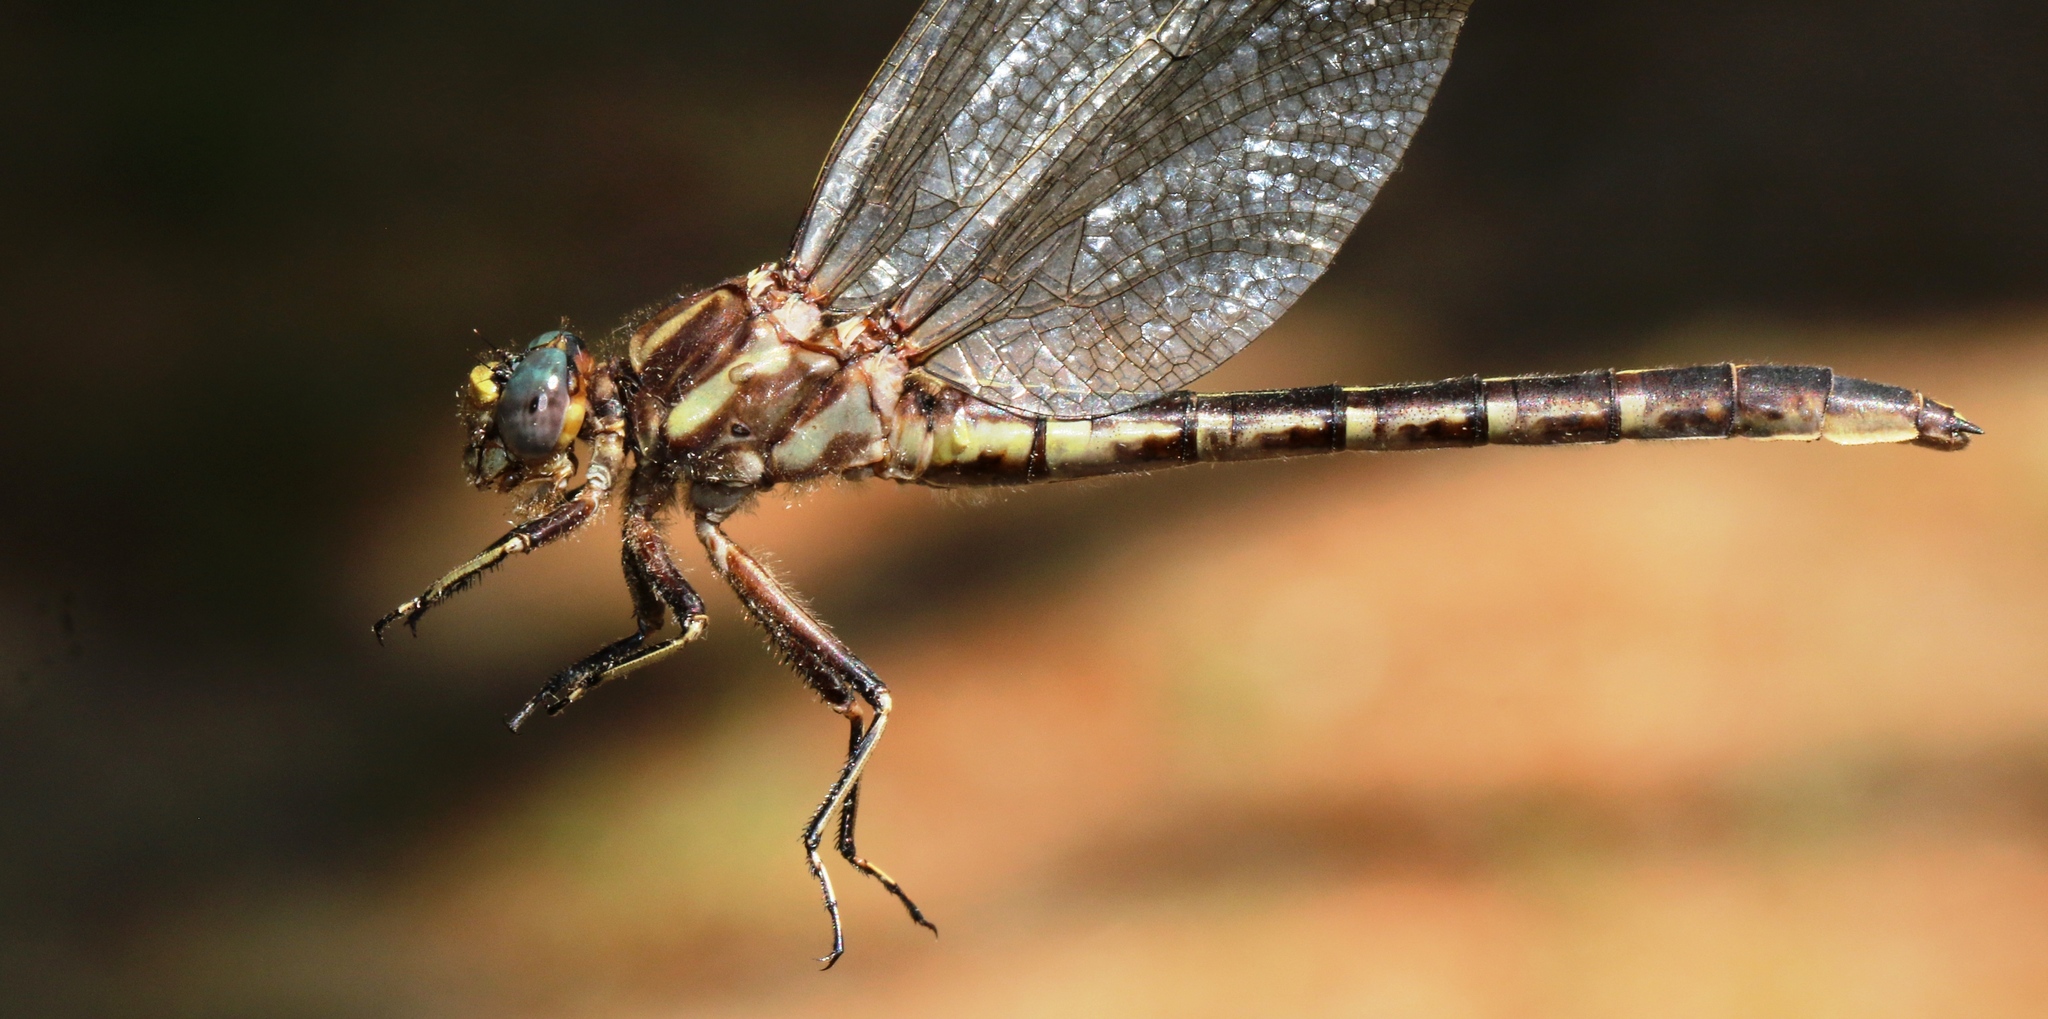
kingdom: Animalia
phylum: Arthropoda
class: Insecta
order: Odonata
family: Gomphidae
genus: Phanogomphus
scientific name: Phanogomphus lividus
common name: Ashy clubtail
